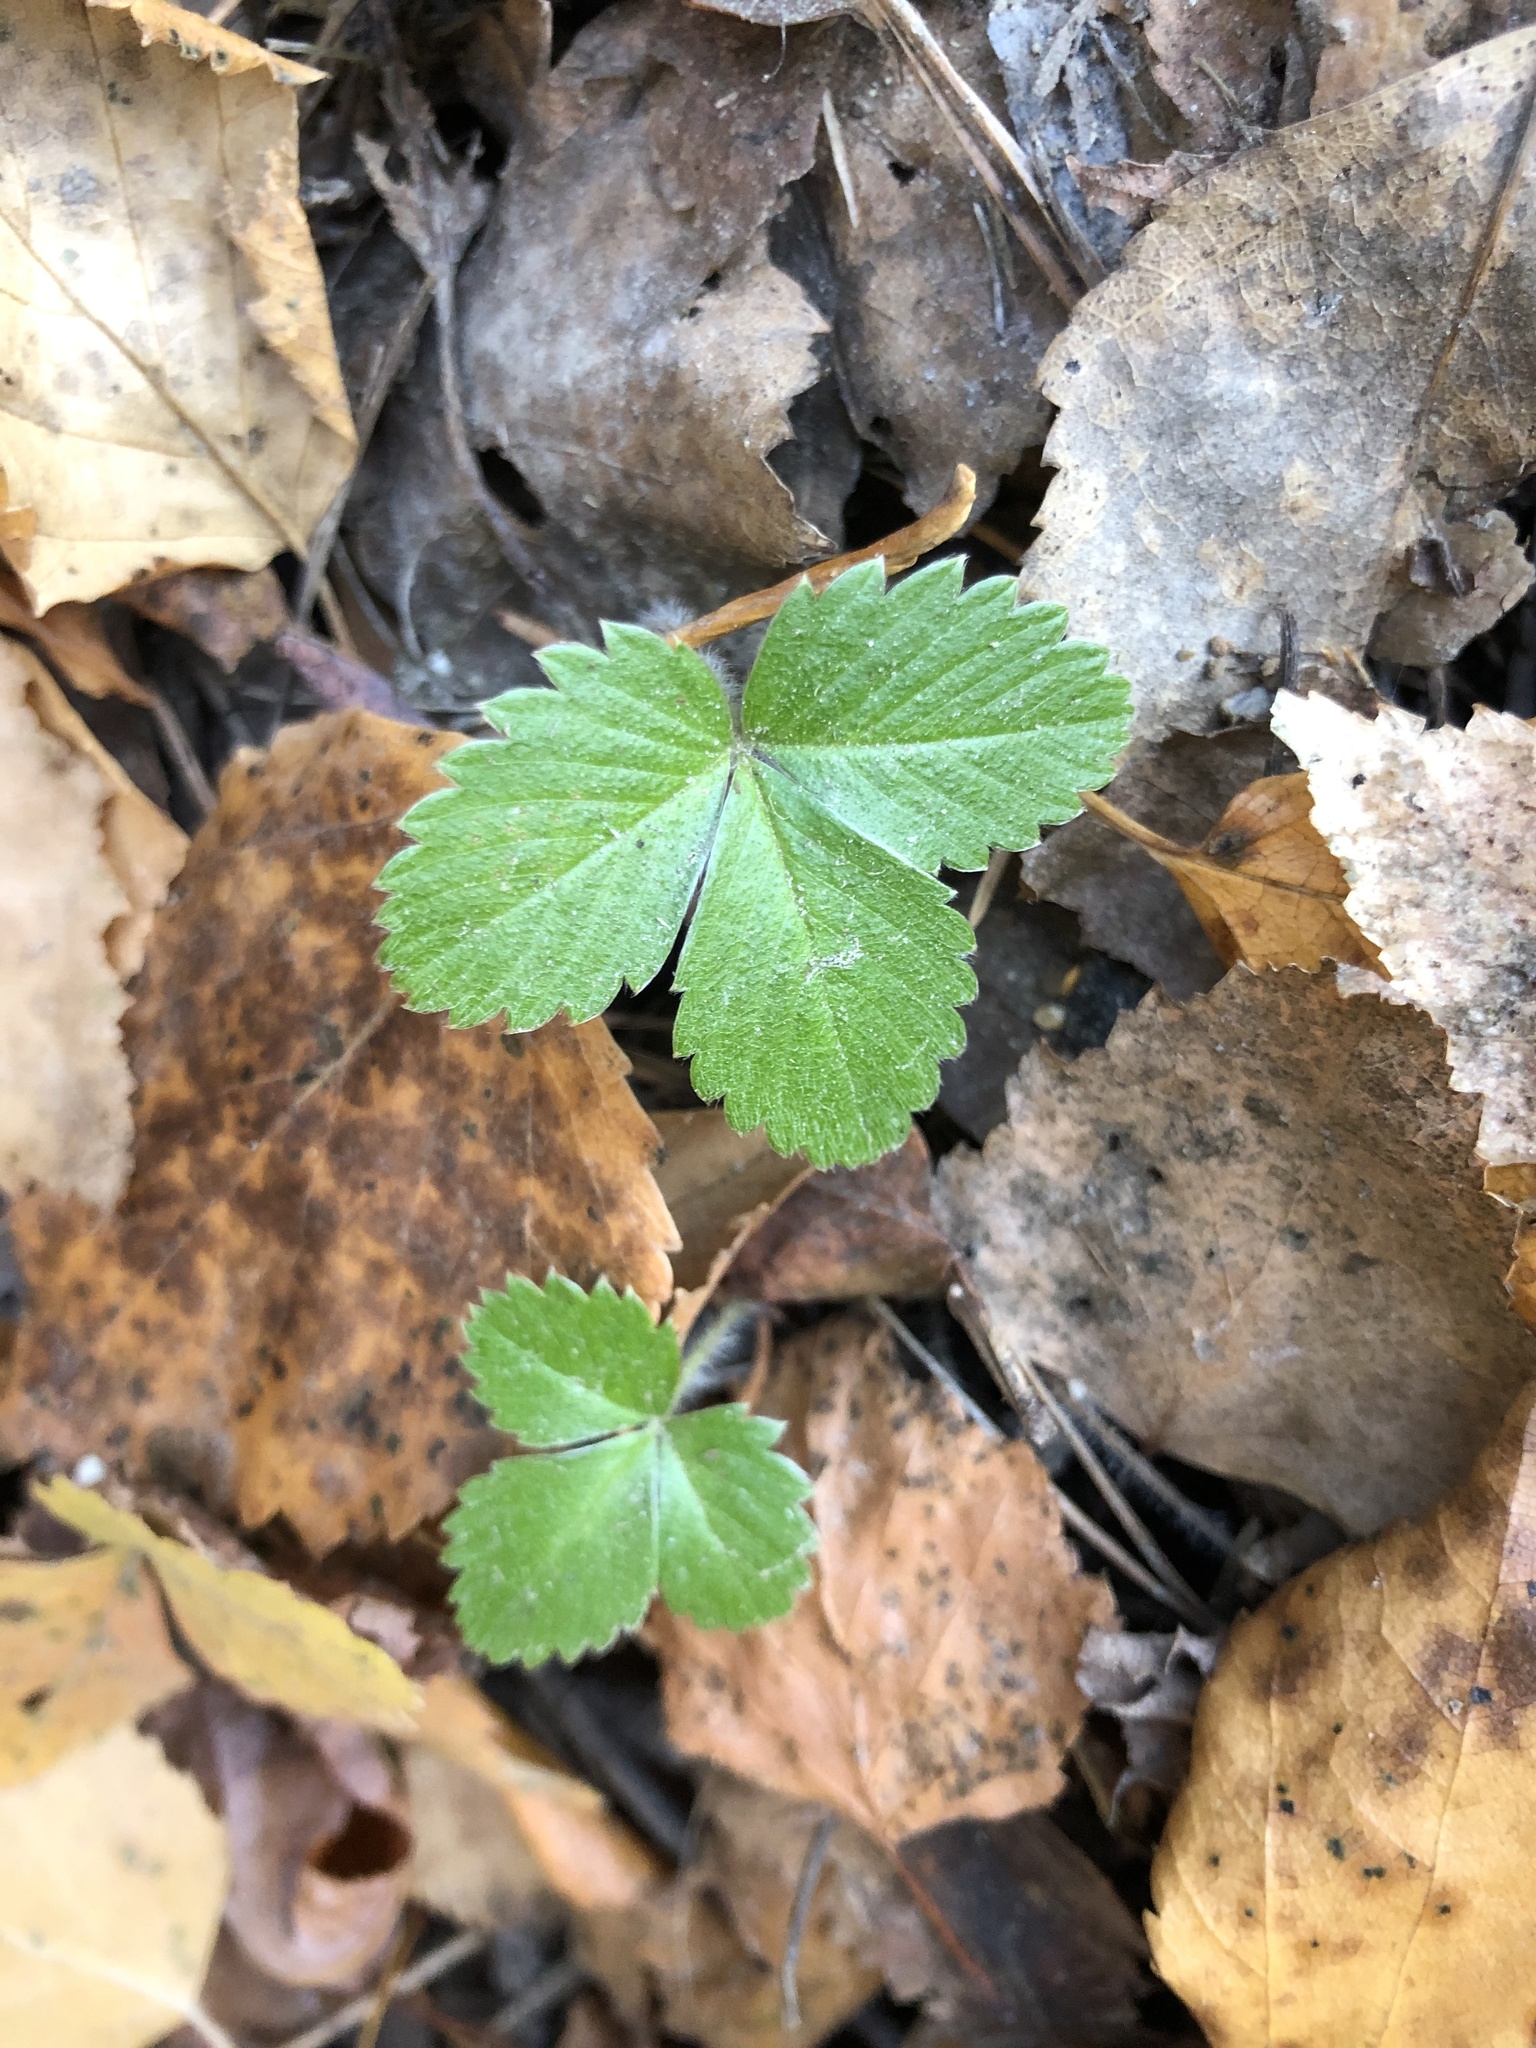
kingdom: Plantae
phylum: Tracheophyta
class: Magnoliopsida
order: Rosales
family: Rosaceae
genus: Fragaria
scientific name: Fragaria vesca
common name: Wild strawberry
